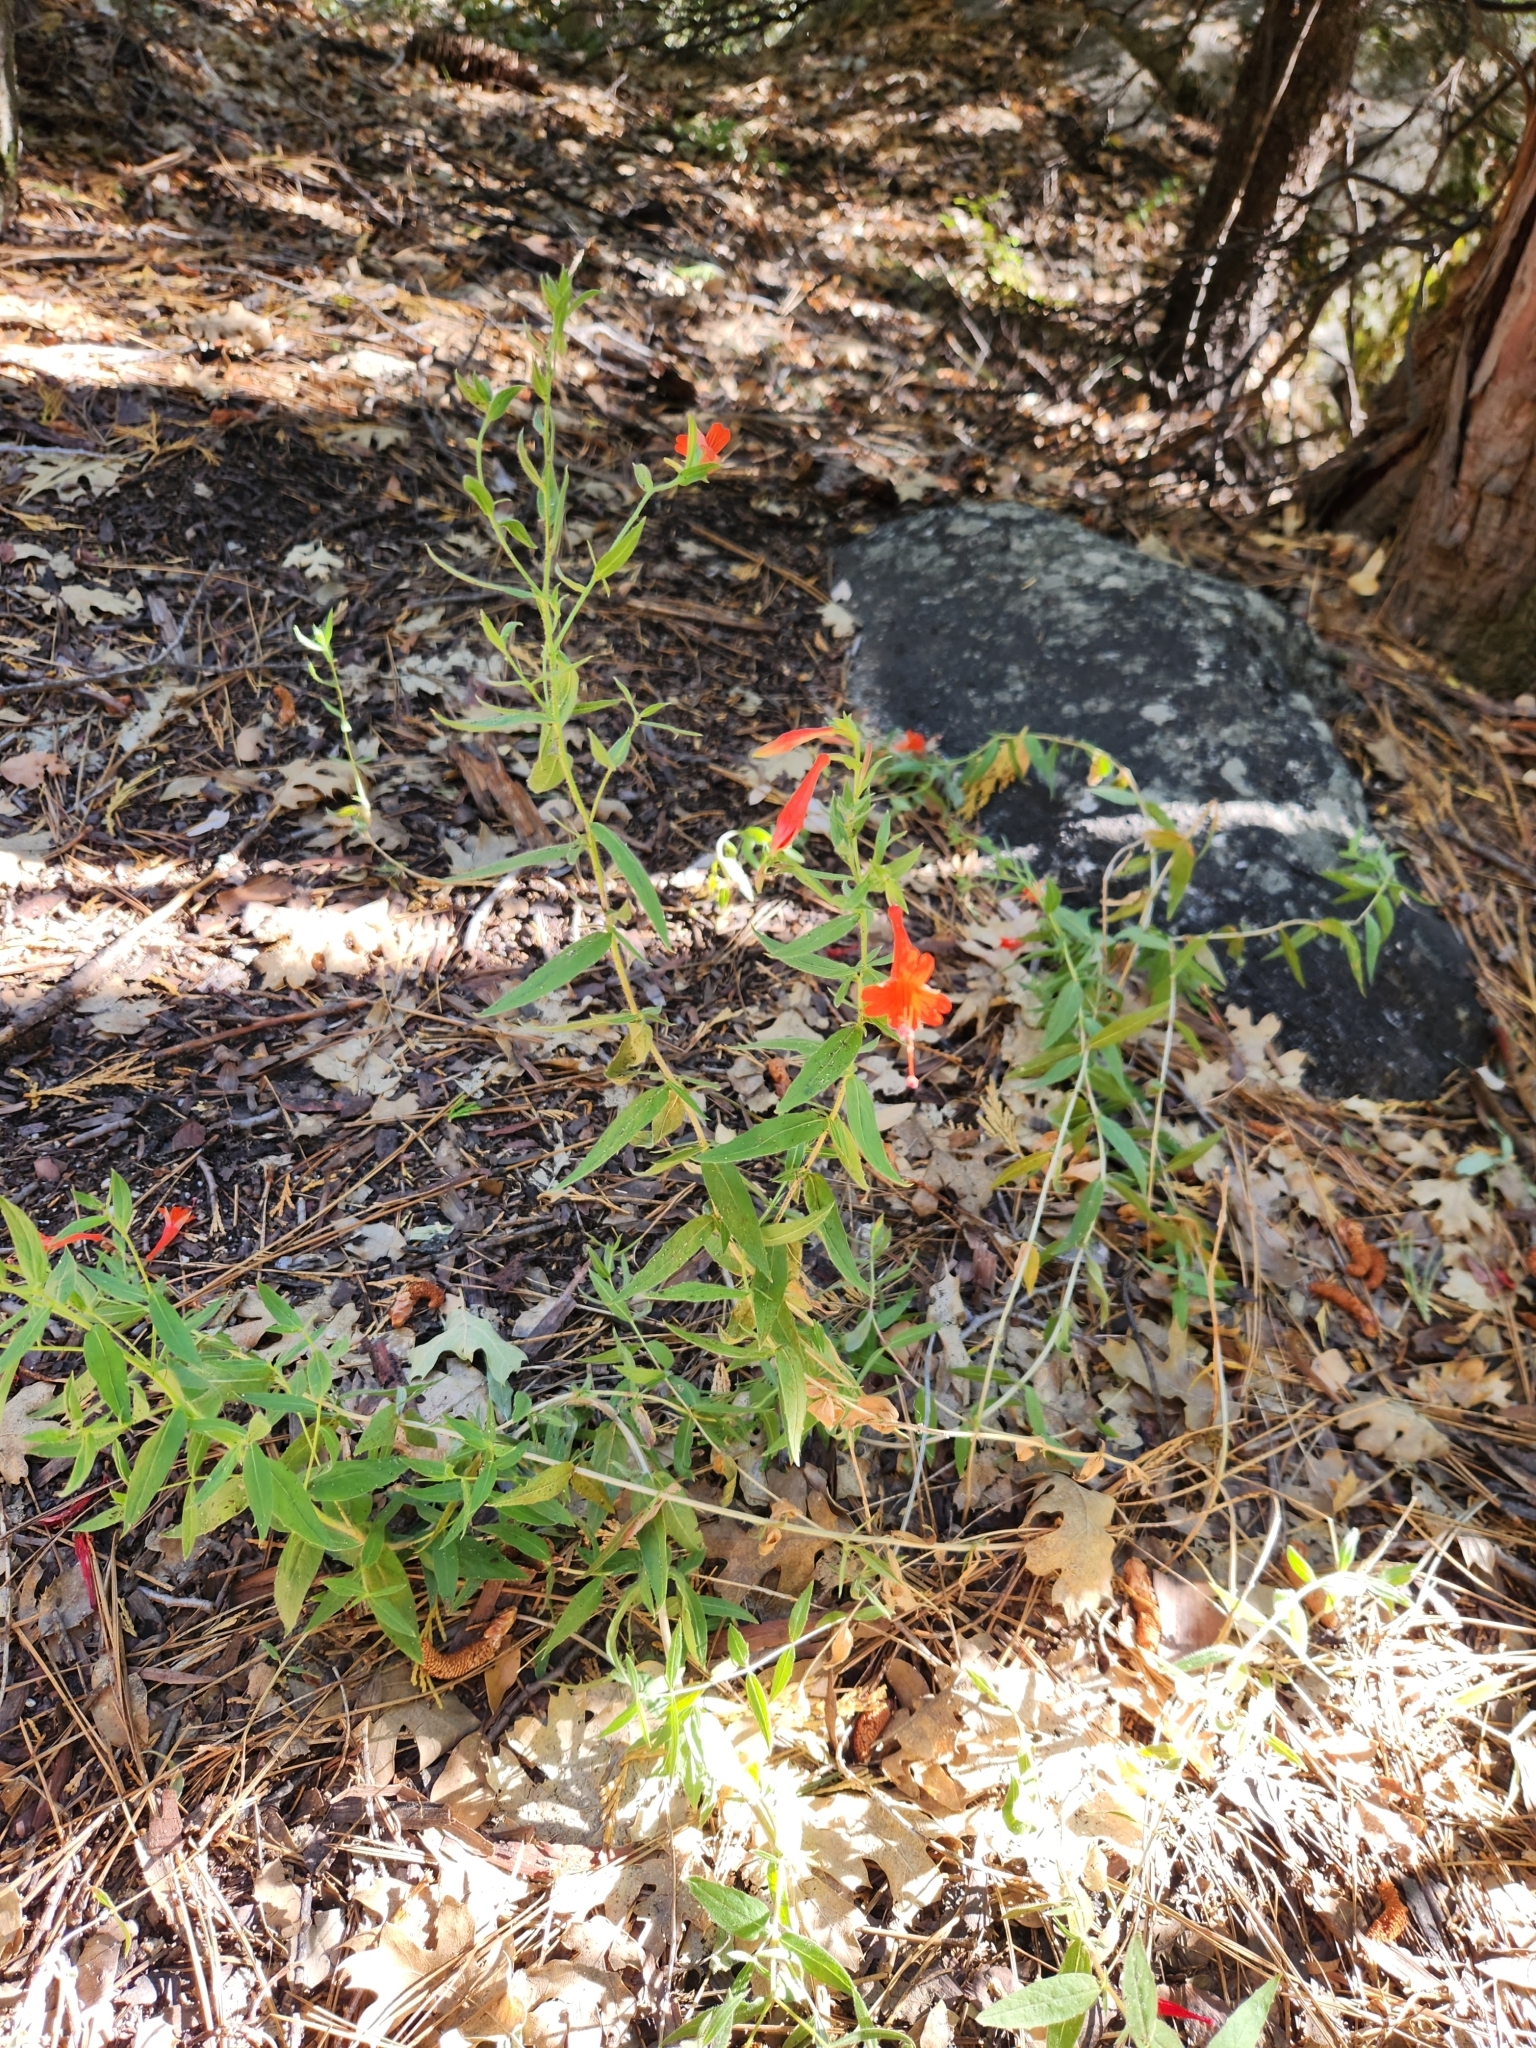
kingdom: Plantae
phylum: Tracheophyta
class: Magnoliopsida
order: Myrtales
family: Onagraceae
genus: Epilobium
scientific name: Epilobium canum
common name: California-fuchsia
